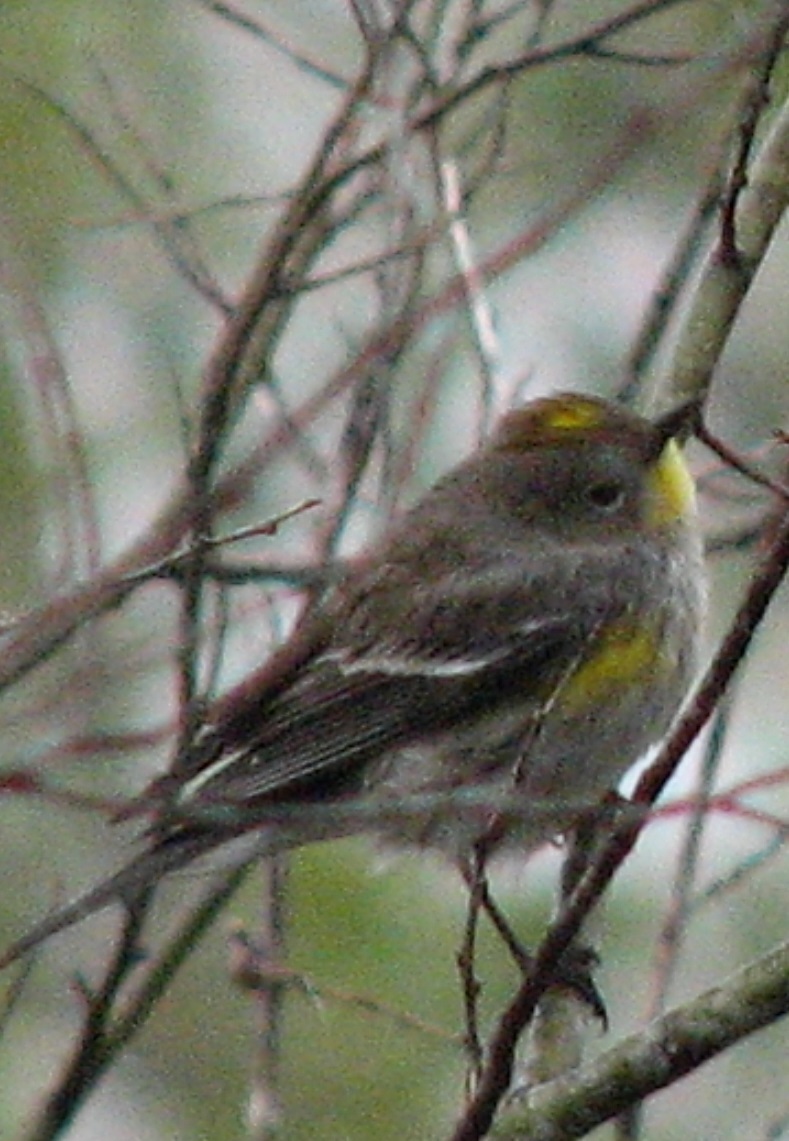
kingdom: Animalia
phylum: Chordata
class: Aves
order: Passeriformes
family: Parulidae
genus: Setophaga
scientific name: Setophaga auduboni
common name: Audubon's warbler
